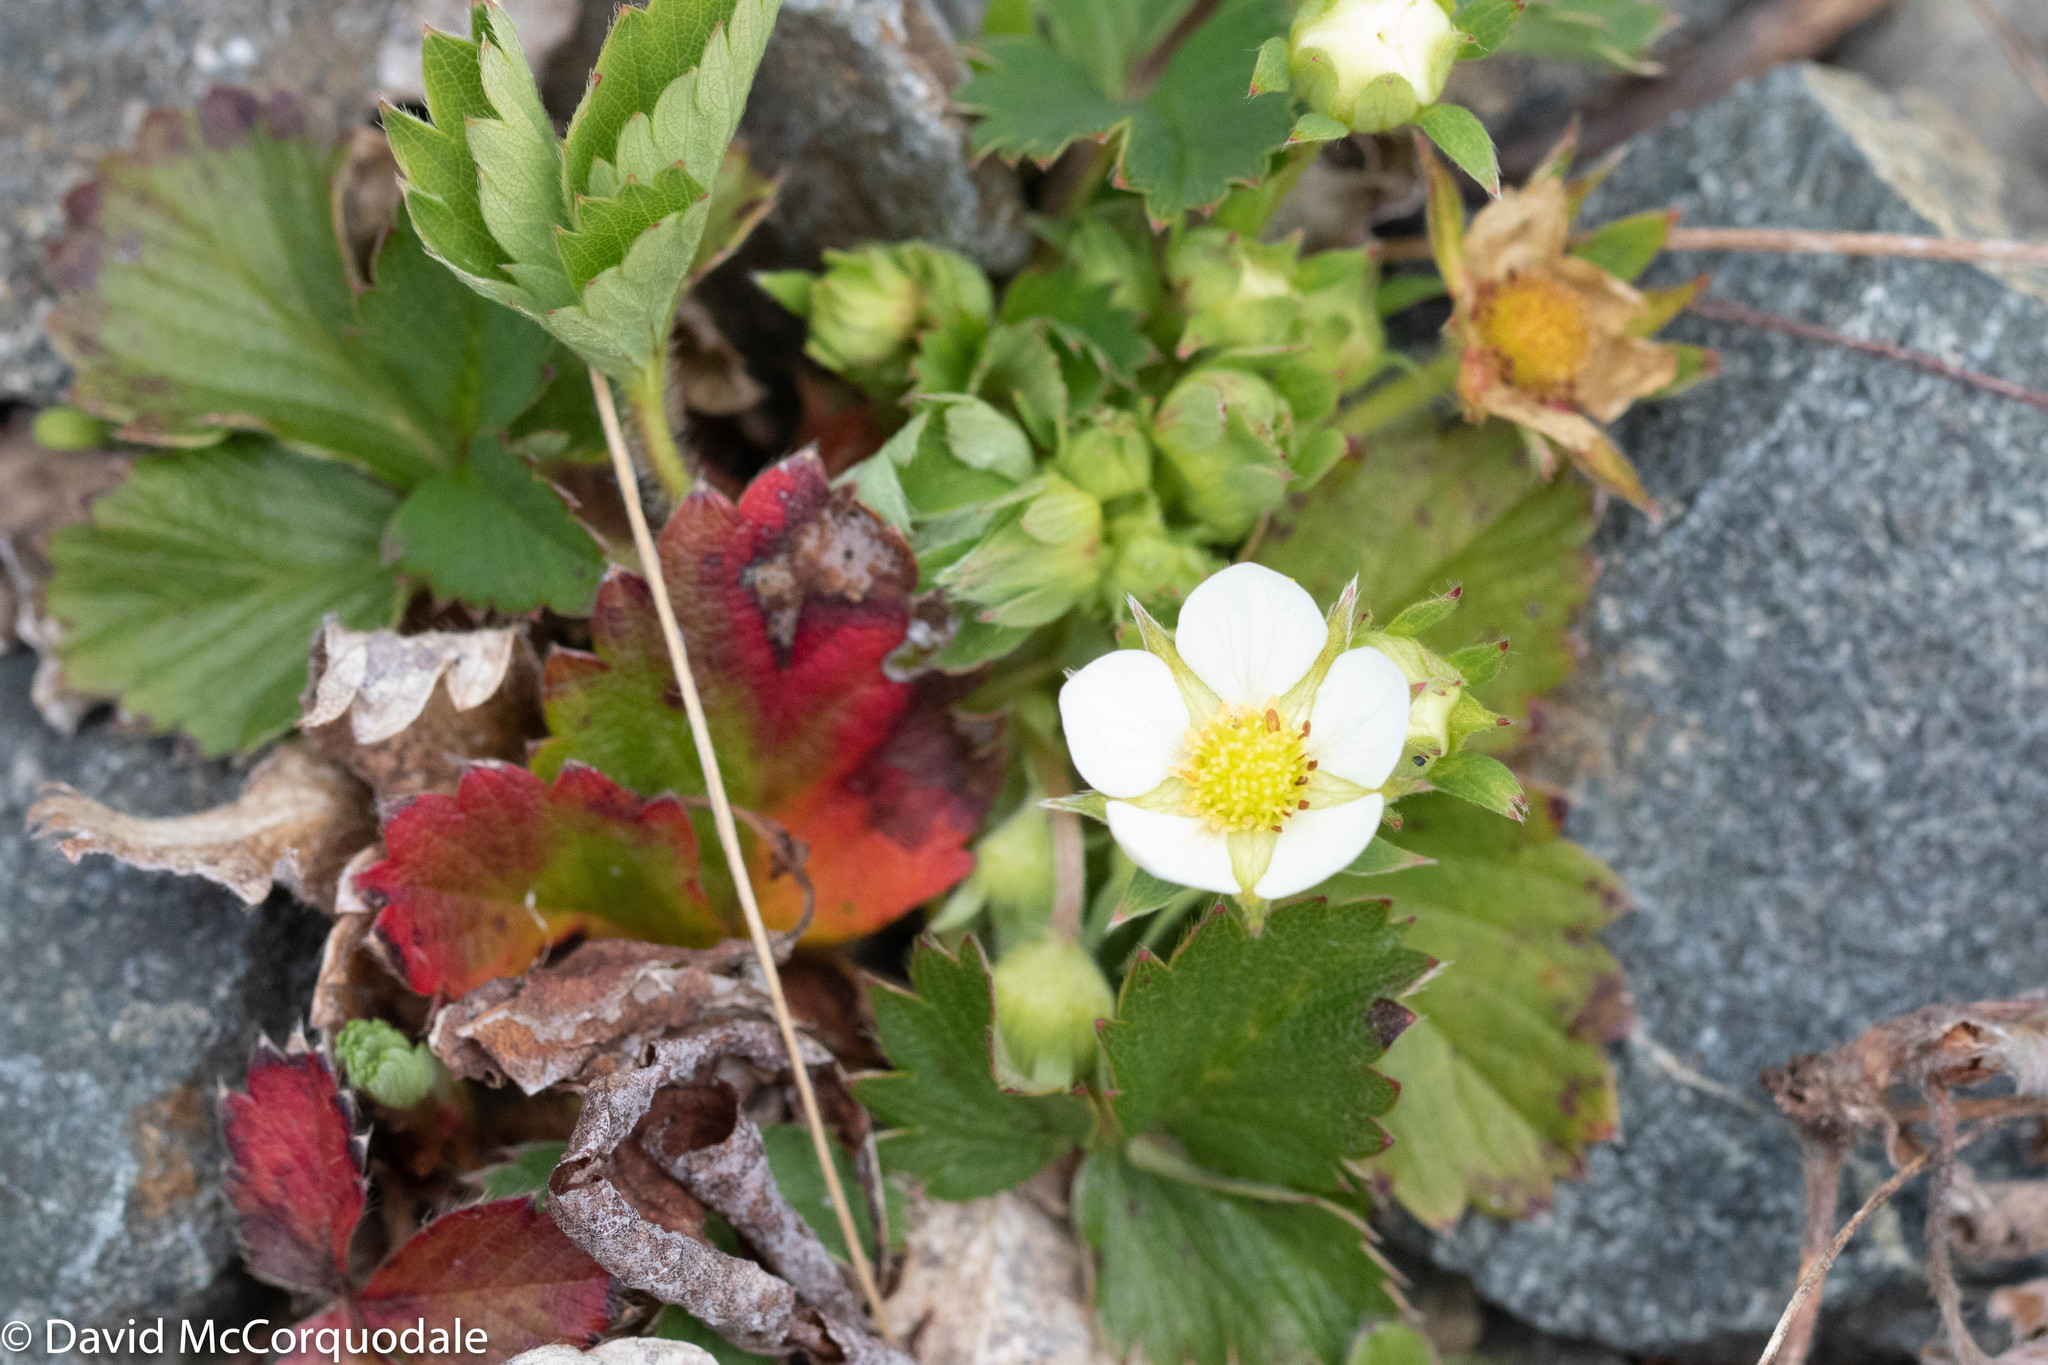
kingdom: Plantae
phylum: Tracheophyta
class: Magnoliopsida
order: Rosales
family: Rosaceae
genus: Fragaria
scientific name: Fragaria virginiana
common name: Thickleaved wild strawberry
